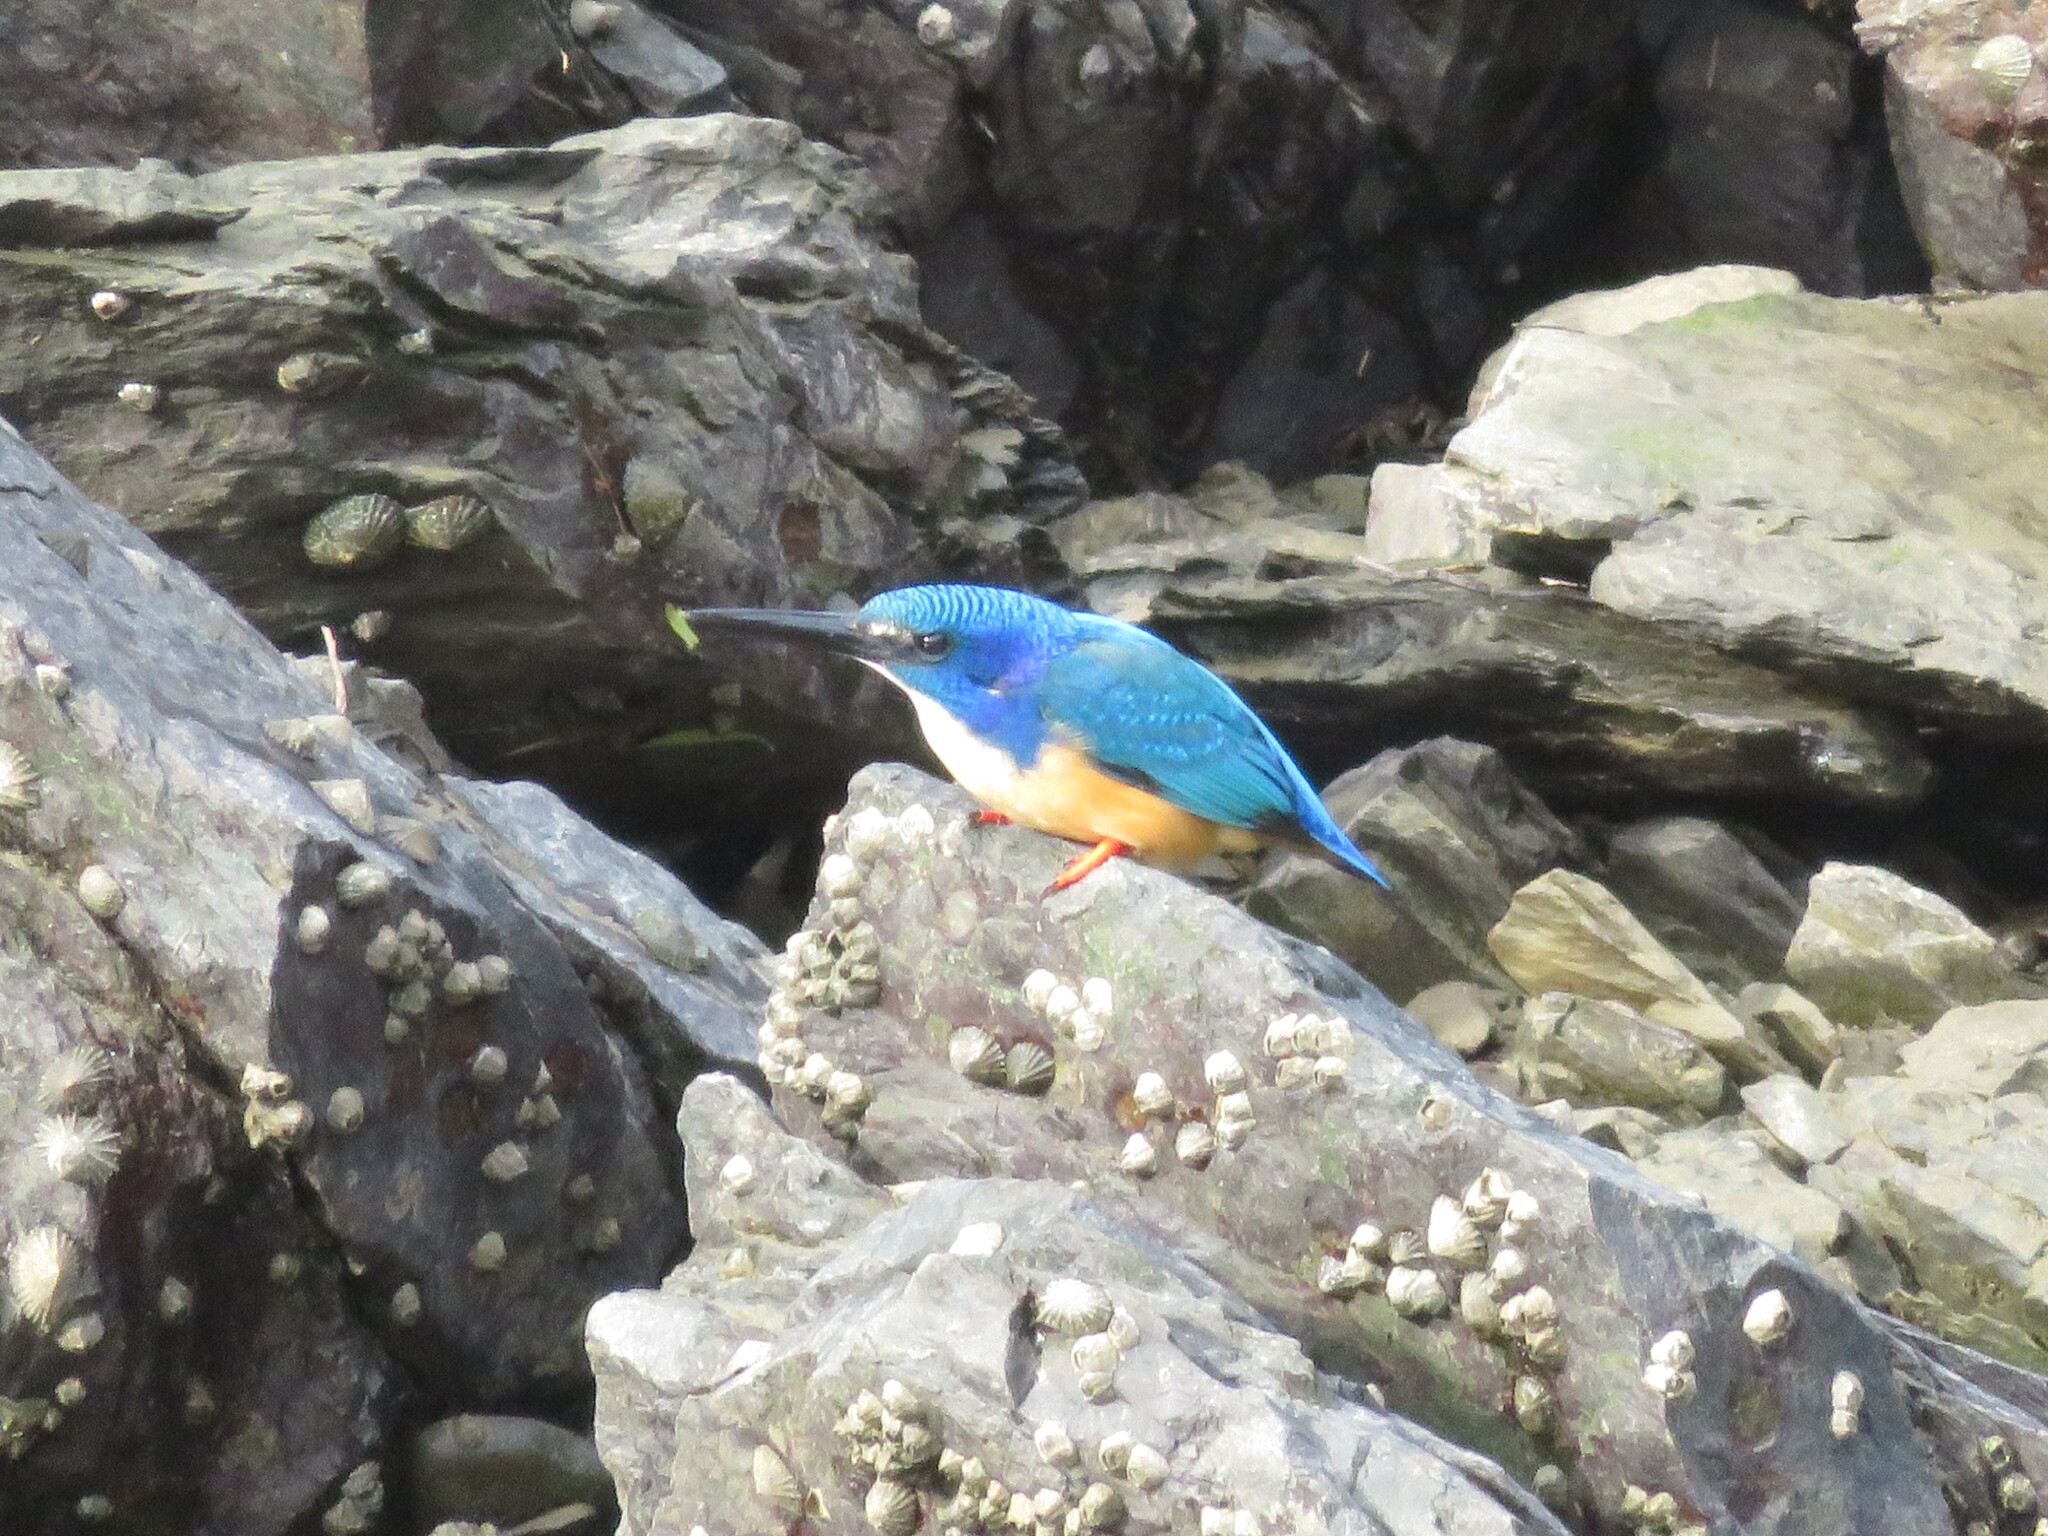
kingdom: Animalia
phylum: Chordata
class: Aves
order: Coraciiformes
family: Alcedinidae
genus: Alcedo
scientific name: Alcedo semitorquata
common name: Half-collared kingfisher
